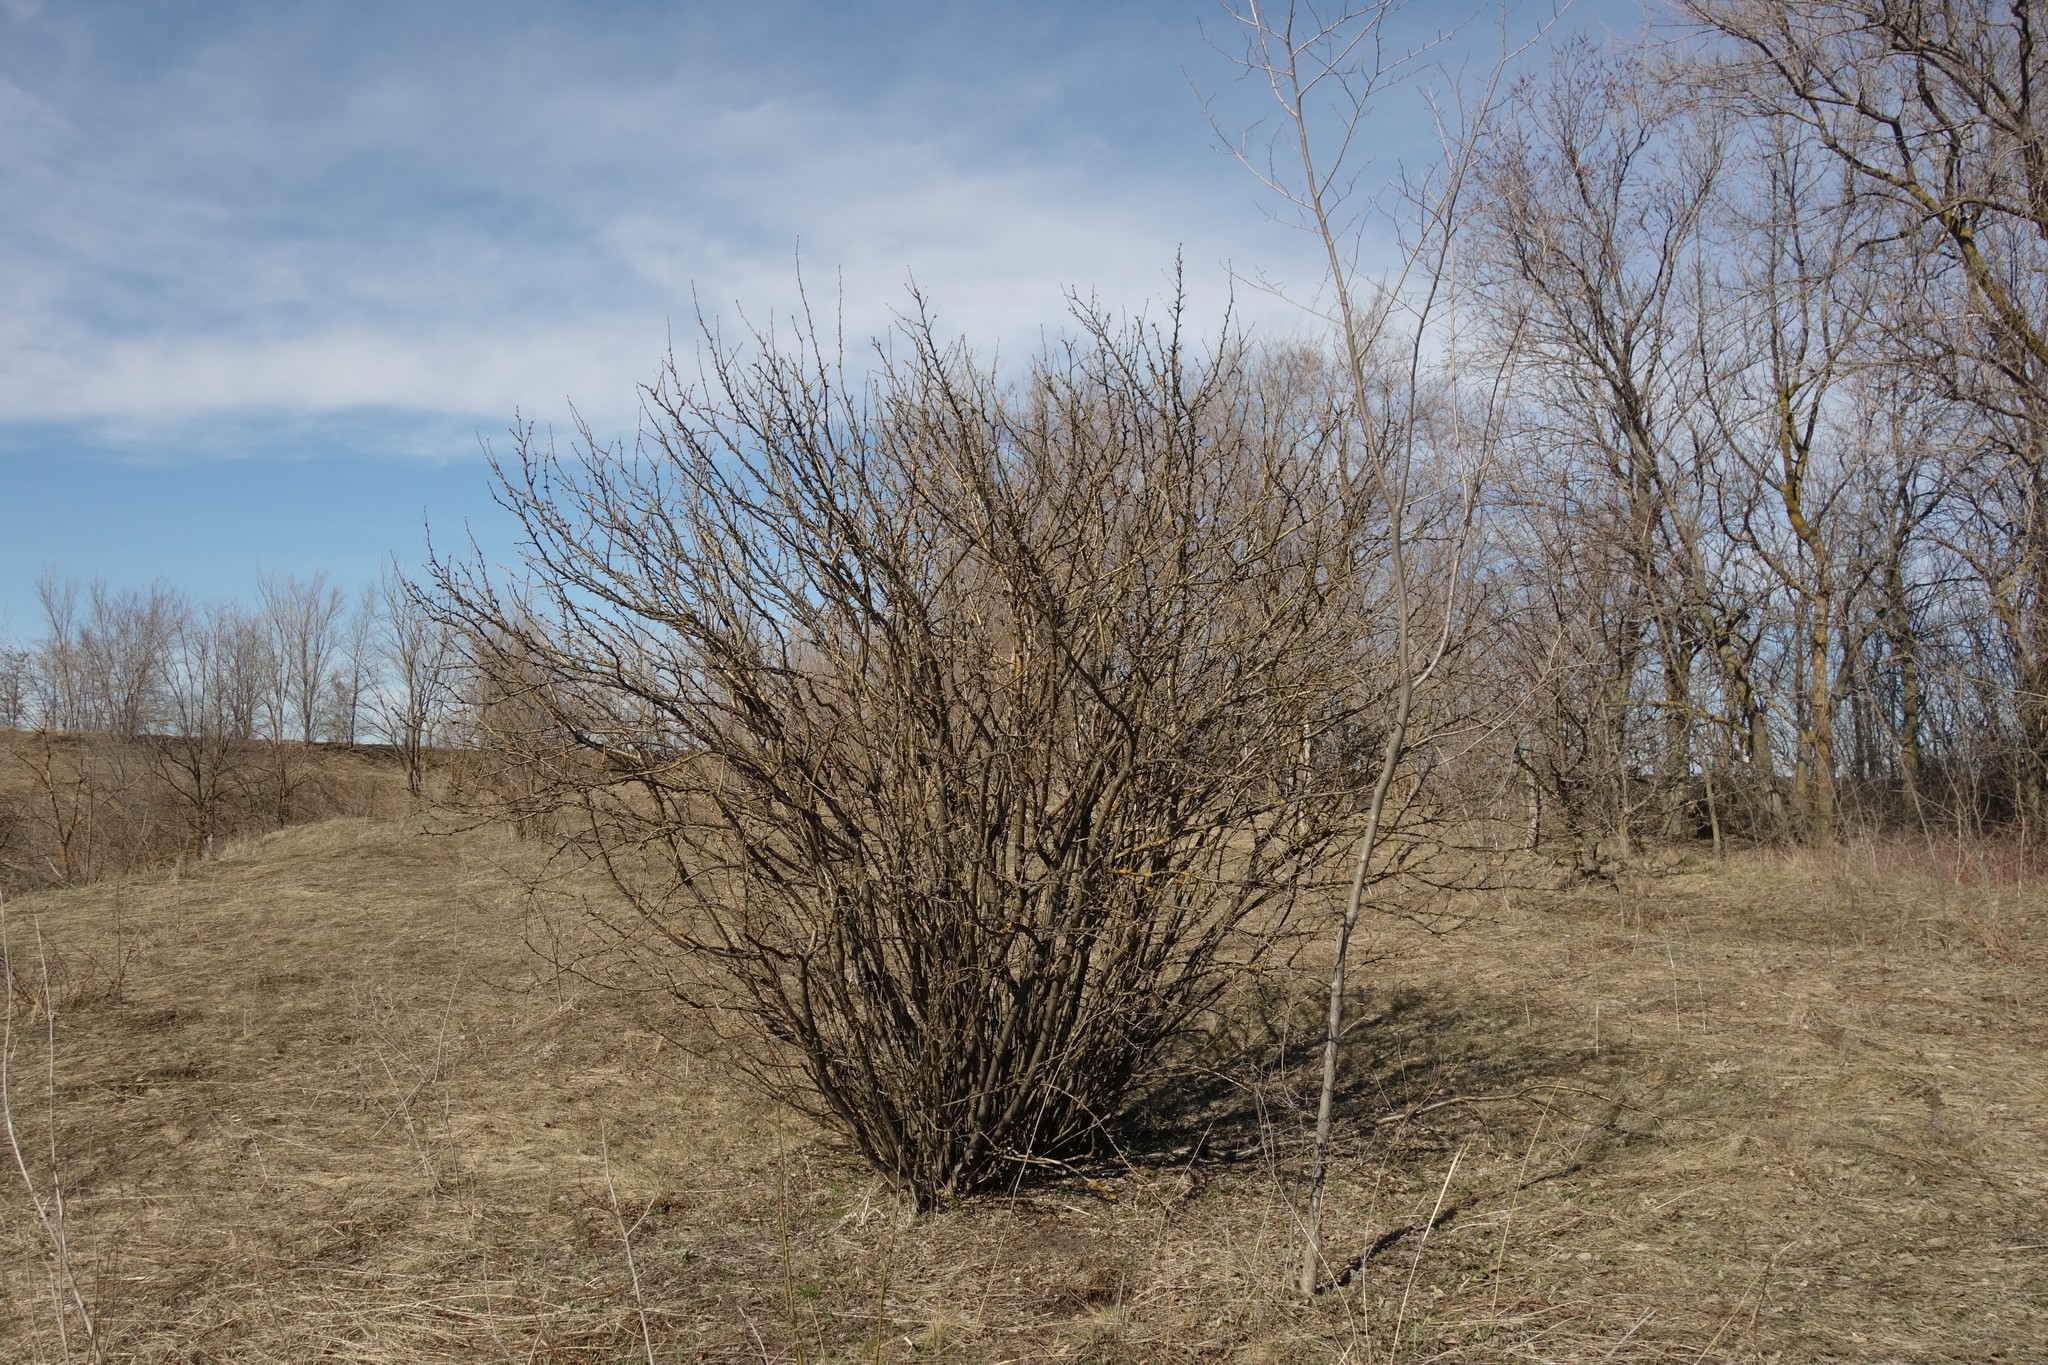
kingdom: Plantae
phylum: Tracheophyta
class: Magnoliopsida
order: Fabales
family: Fabaceae
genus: Caragana
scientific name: Caragana arborescens
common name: Siberian peashrub
